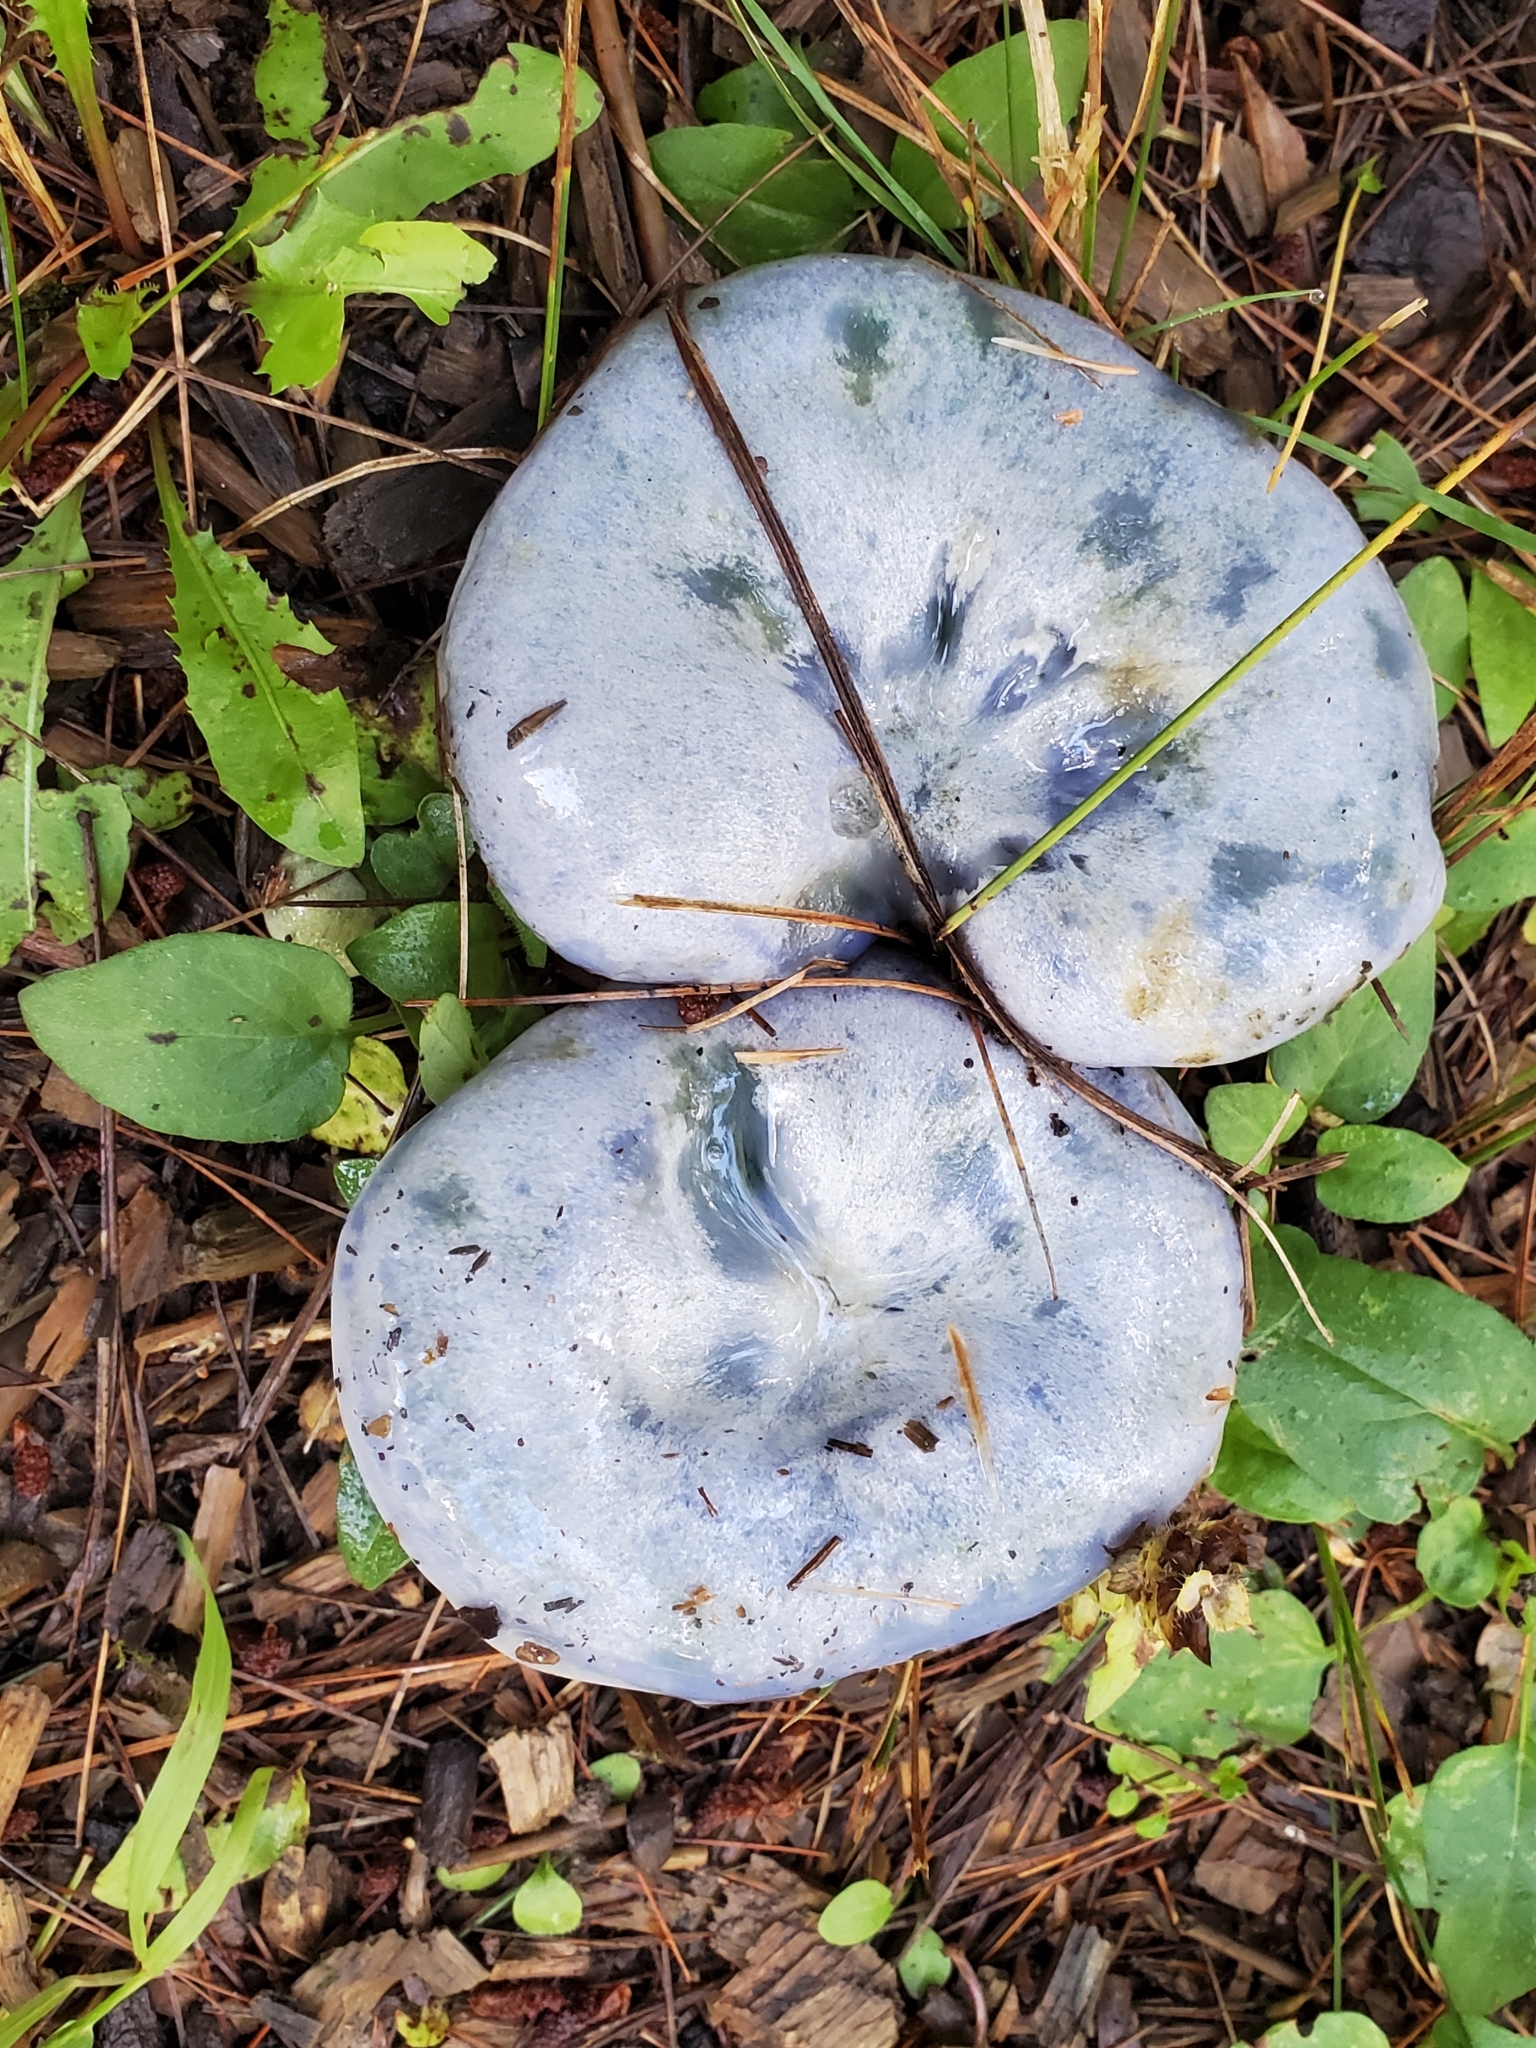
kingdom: Fungi
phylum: Basidiomycota
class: Agaricomycetes
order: Russulales
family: Russulaceae
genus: Lactarius
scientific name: Lactarius indigo
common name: Indigo milk cap
